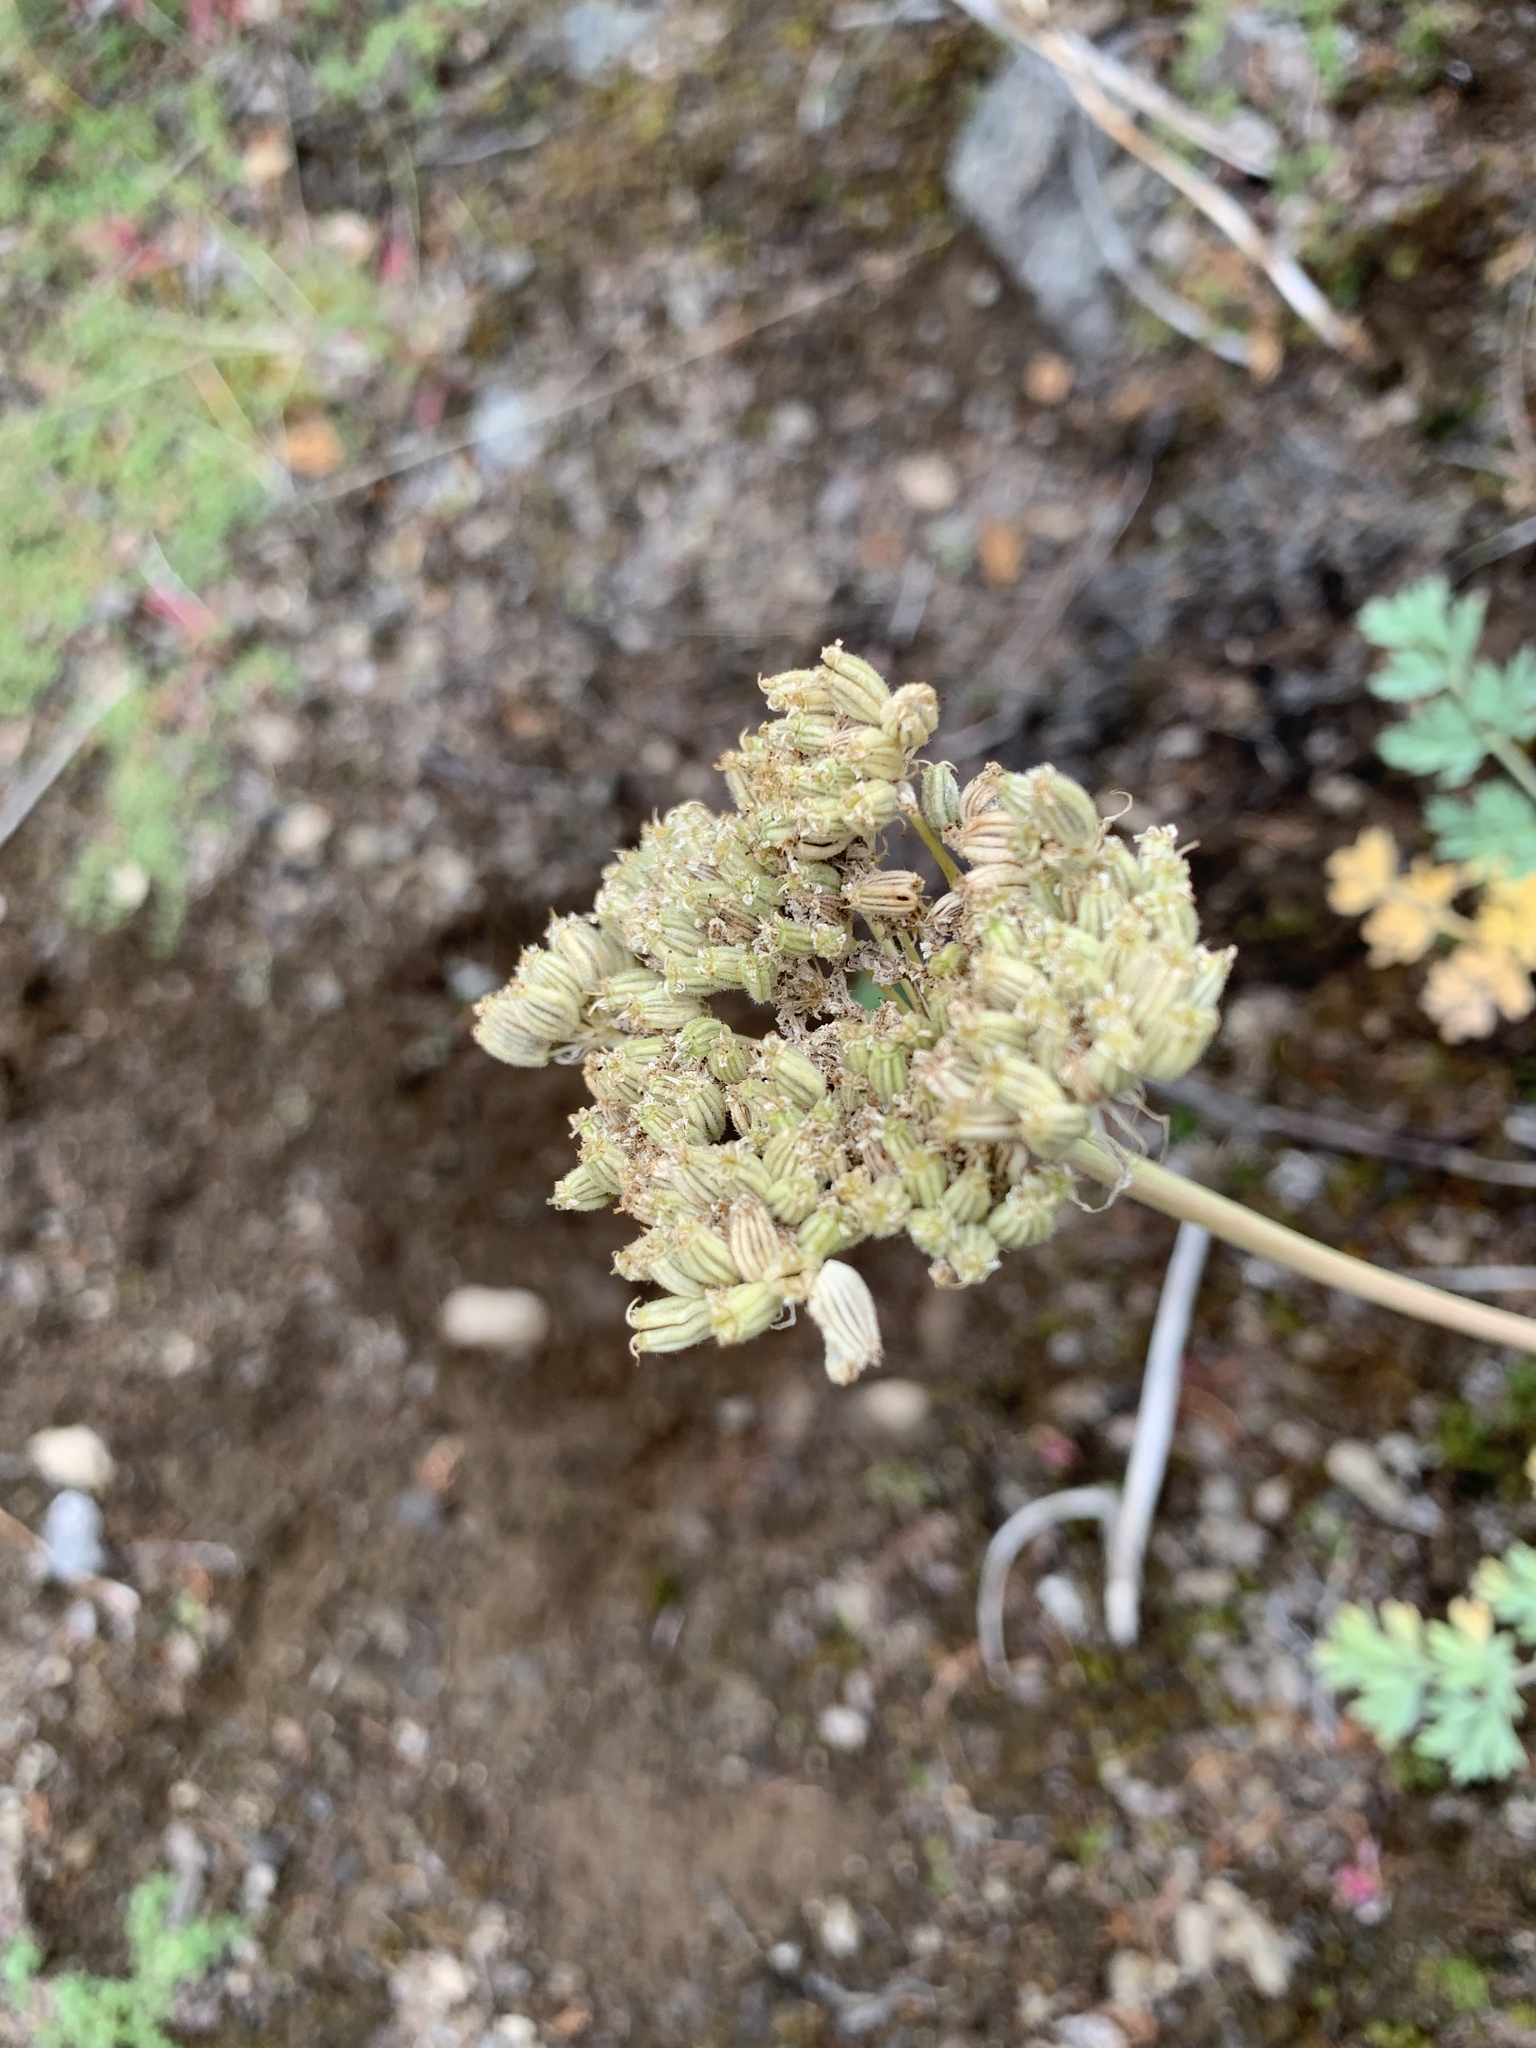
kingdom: Plantae
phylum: Tracheophyta
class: Magnoliopsida
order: Apiales
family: Apiaceae
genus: Phlojodicarpus
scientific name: Phlojodicarpus villosus
